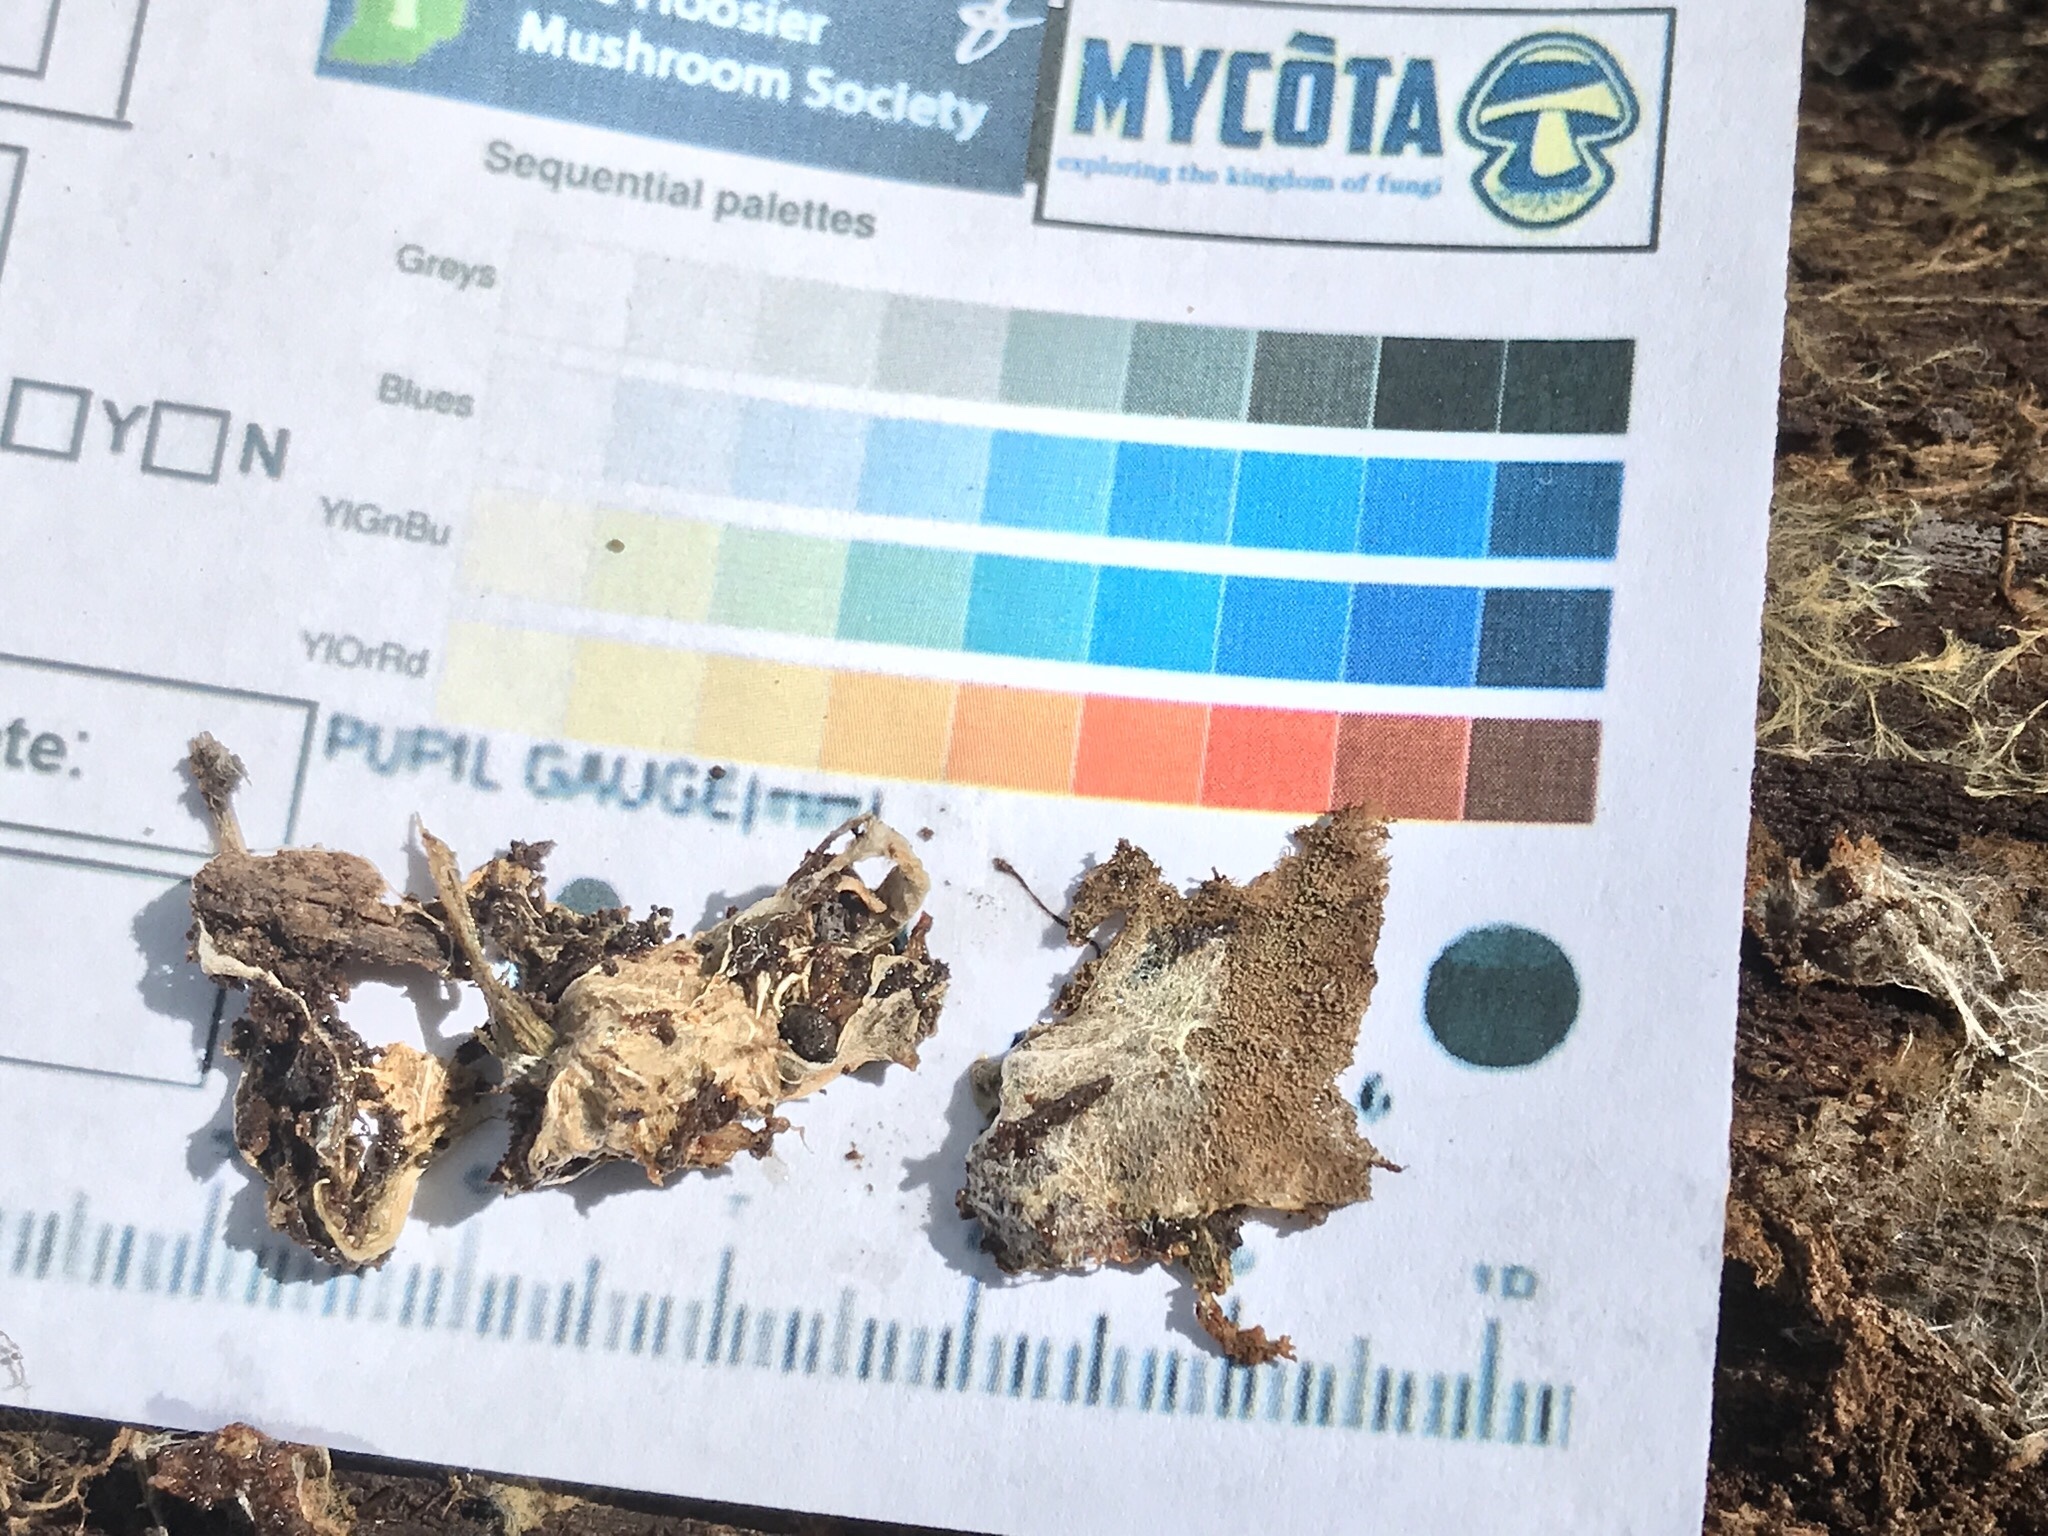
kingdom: Fungi
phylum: Basidiomycota
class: Agaricomycetes
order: Boletales
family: Serpulaceae
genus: Serpula
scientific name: Serpula himantioides
